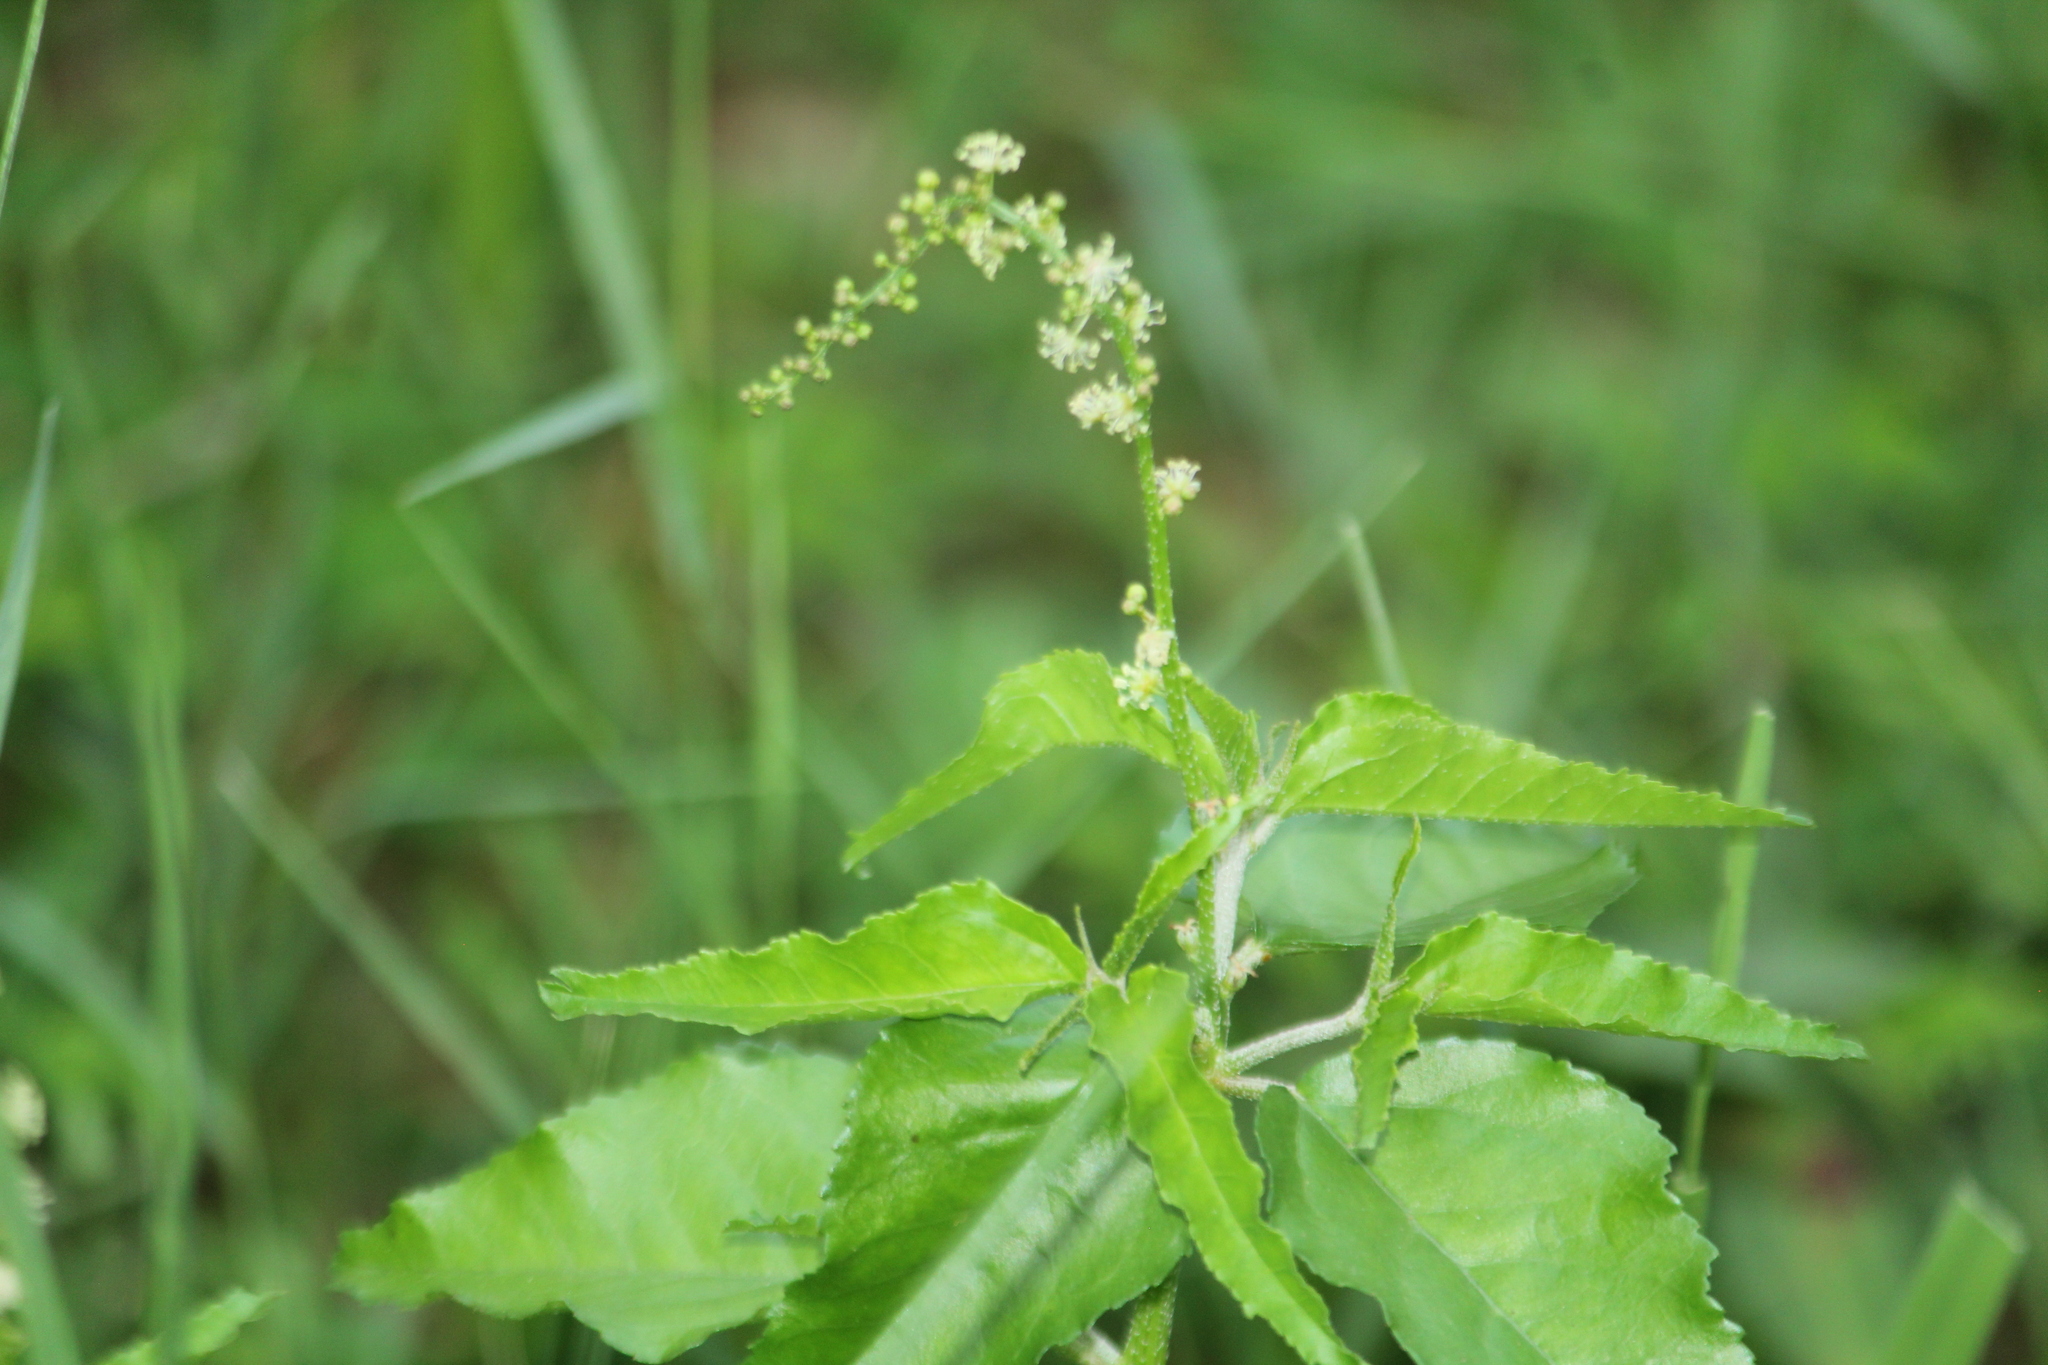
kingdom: Plantae
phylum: Tracheophyta
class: Magnoliopsida
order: Malpighiales
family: Euphorbiaceae
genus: Croton
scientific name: Croton bonplandianus
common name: Bonpland's croton
